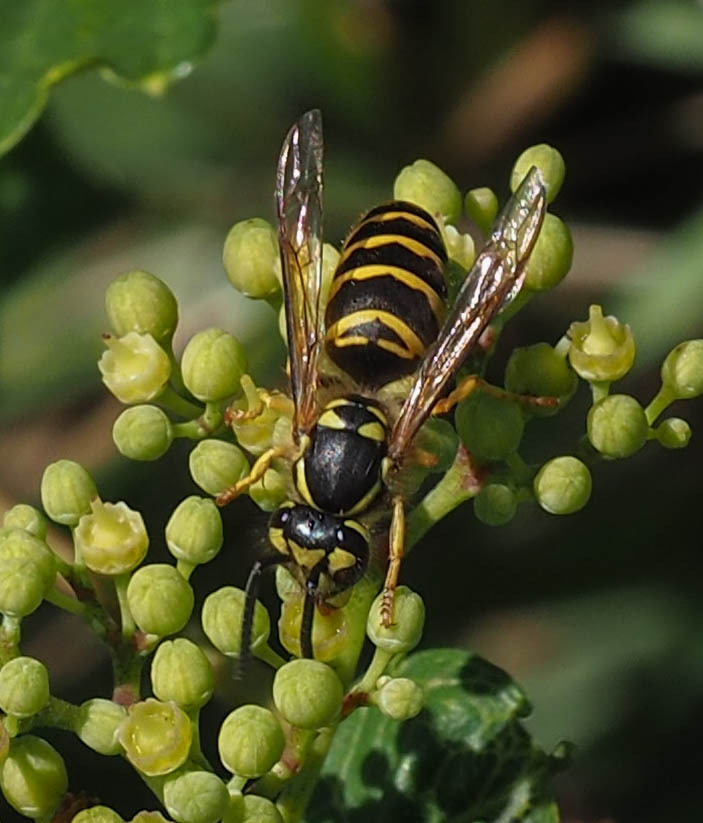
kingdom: Animalia
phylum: Arthropoda
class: Insecta
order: Hymenoptera
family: Vespidae
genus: Vespula
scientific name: Vespula maculifrons
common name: Eastern yellowjacket
